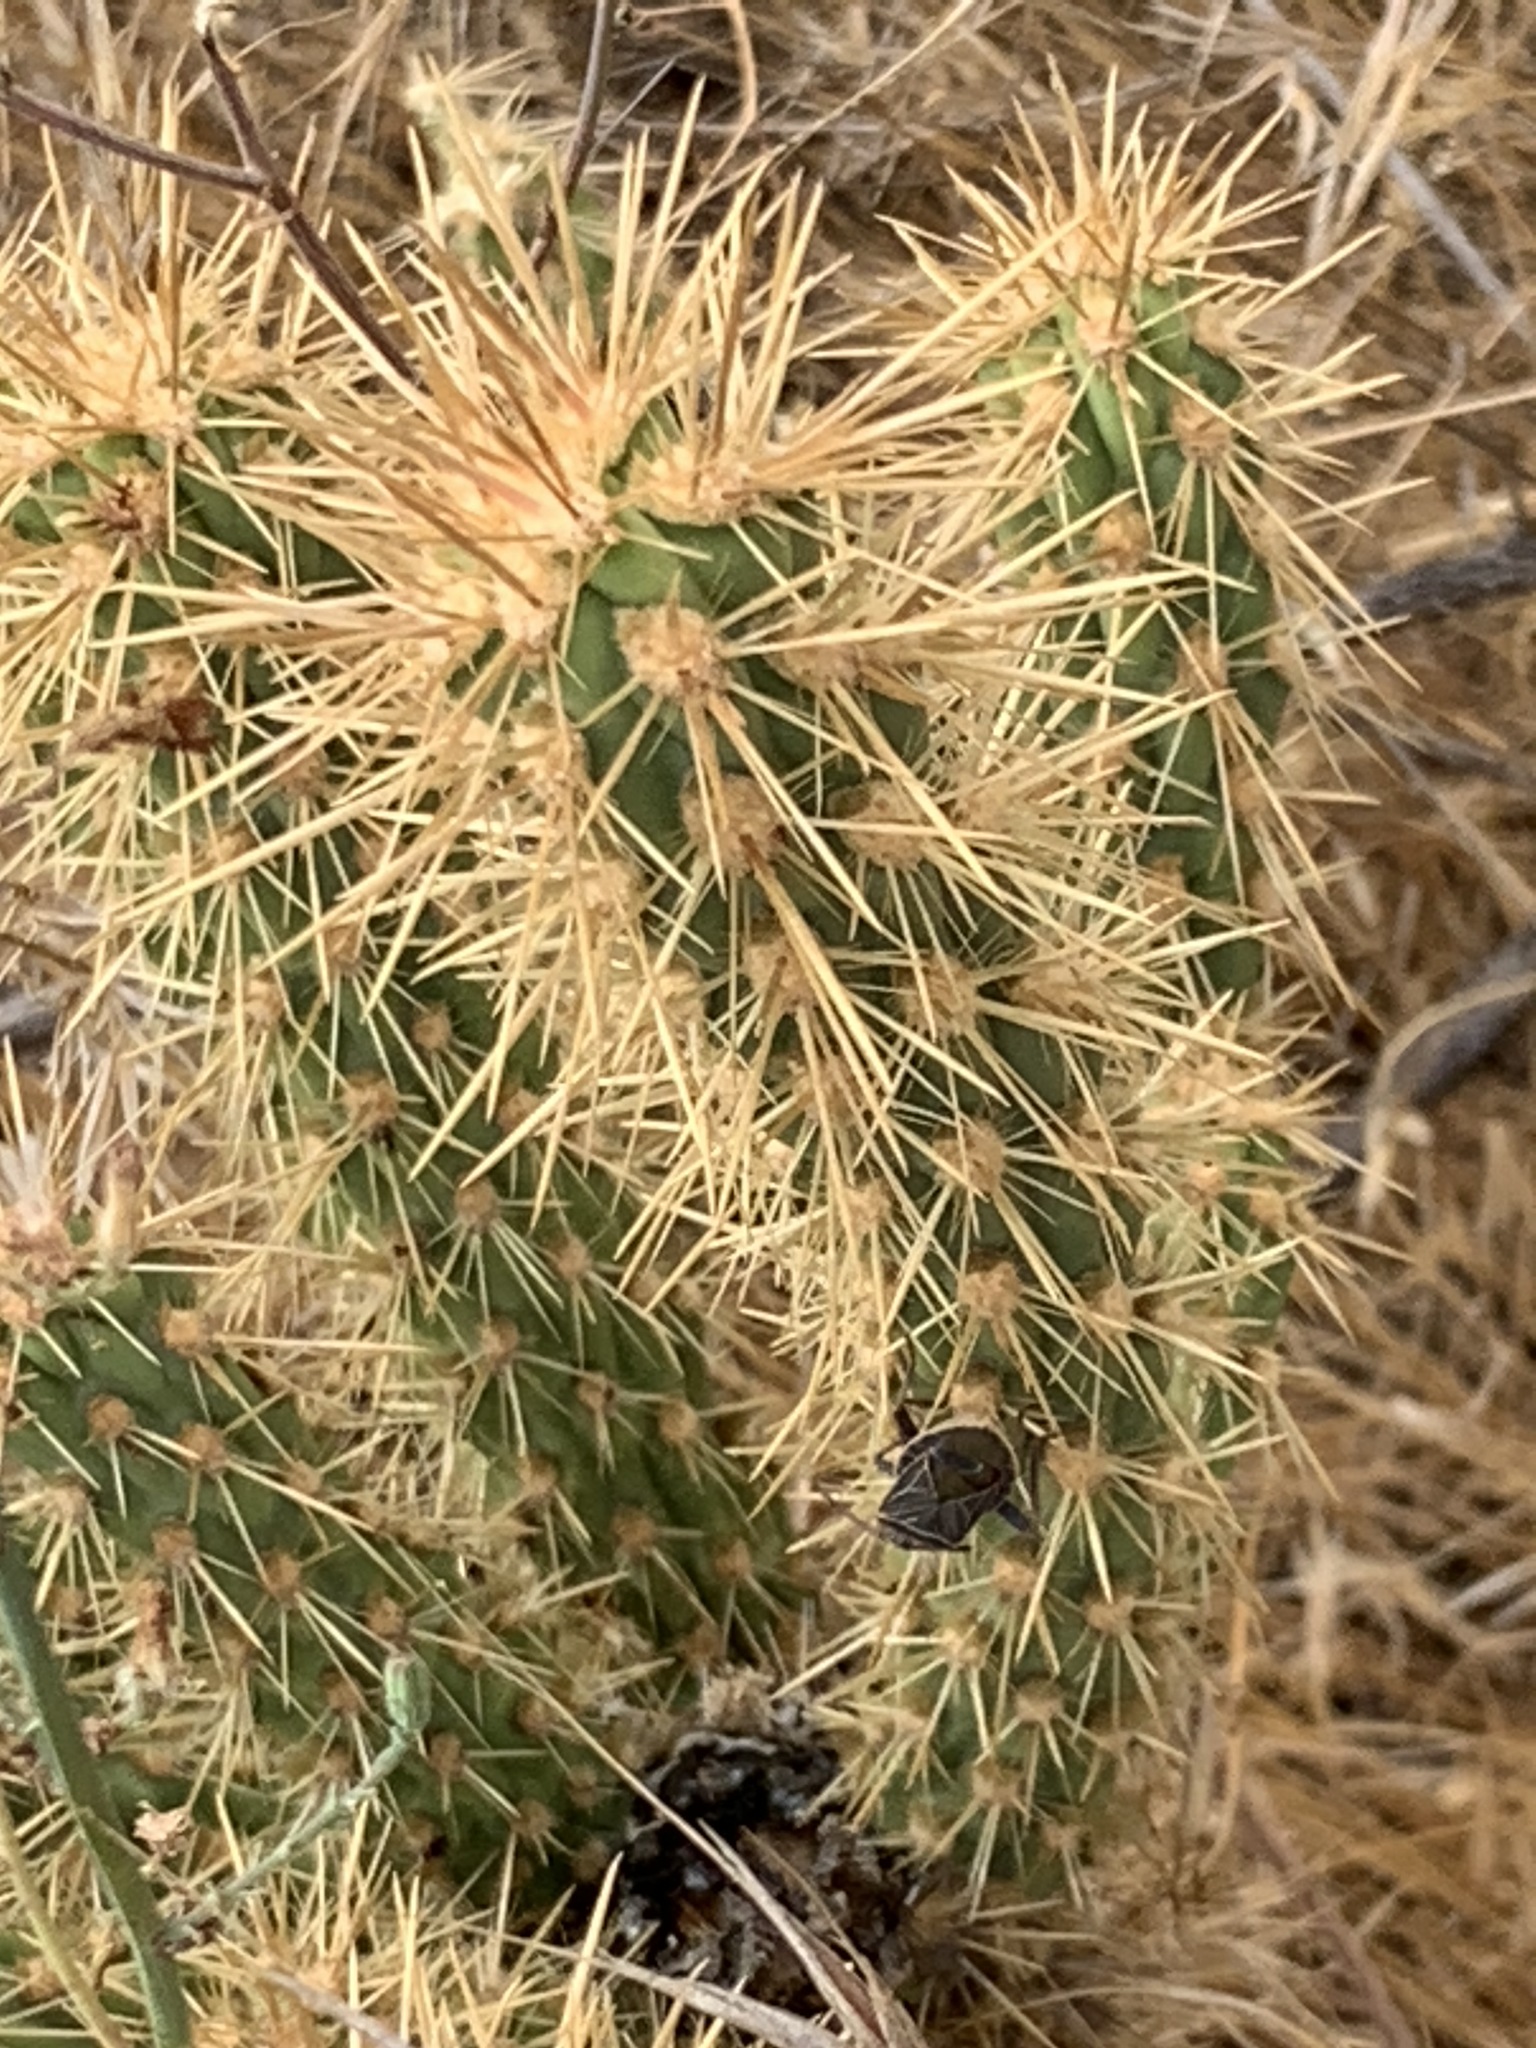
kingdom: Animalia
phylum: Arthropoda
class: Insecta
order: Hemiptera
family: Coreidae
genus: Chelinidea
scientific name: Chelinidea vittiger
